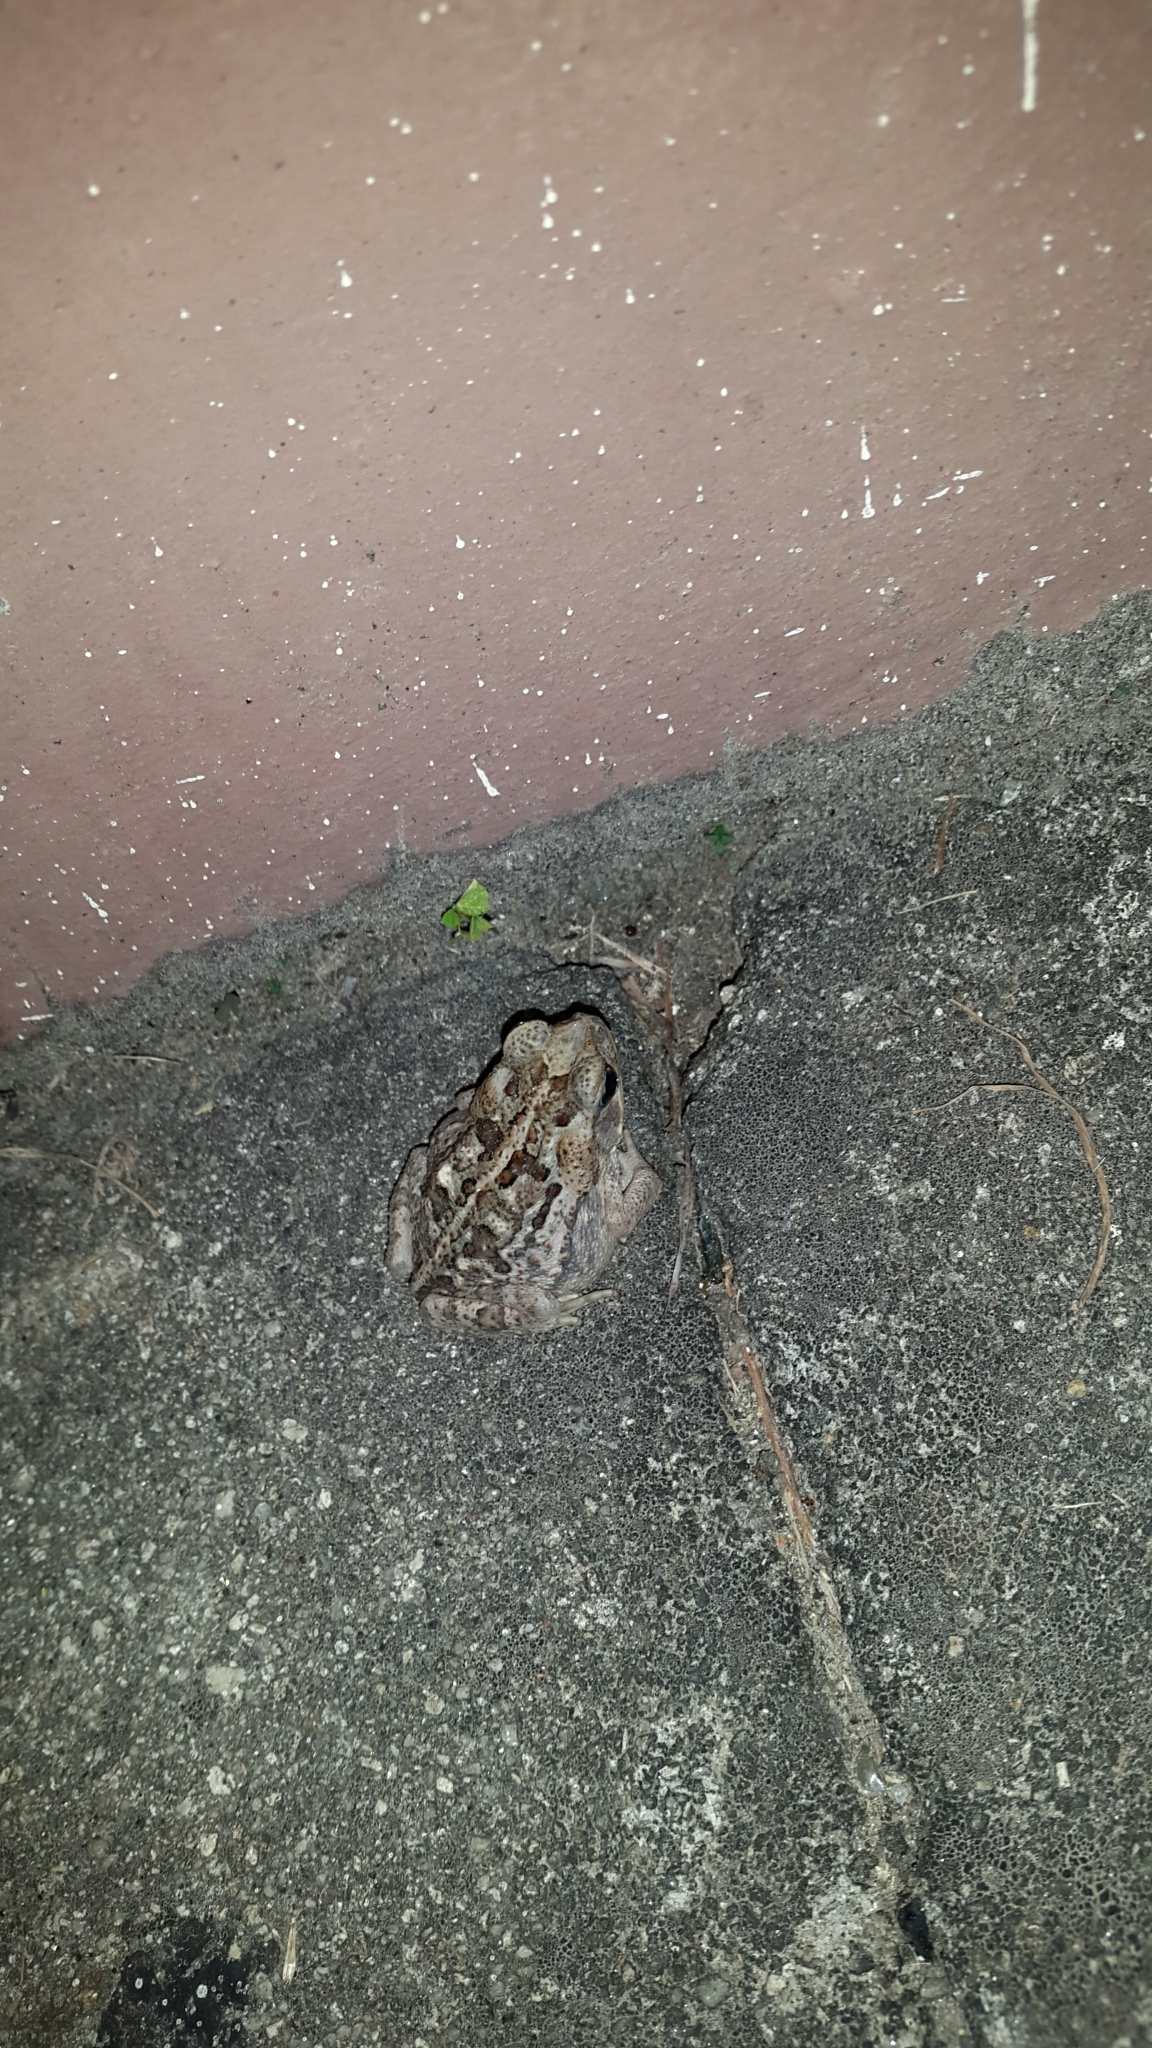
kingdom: Animalia
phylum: Chordata
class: Amphibia
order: Anura
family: Bufonidae
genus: Rhinella
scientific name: Rhinella horribilis
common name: Mesoamerican cane toad
